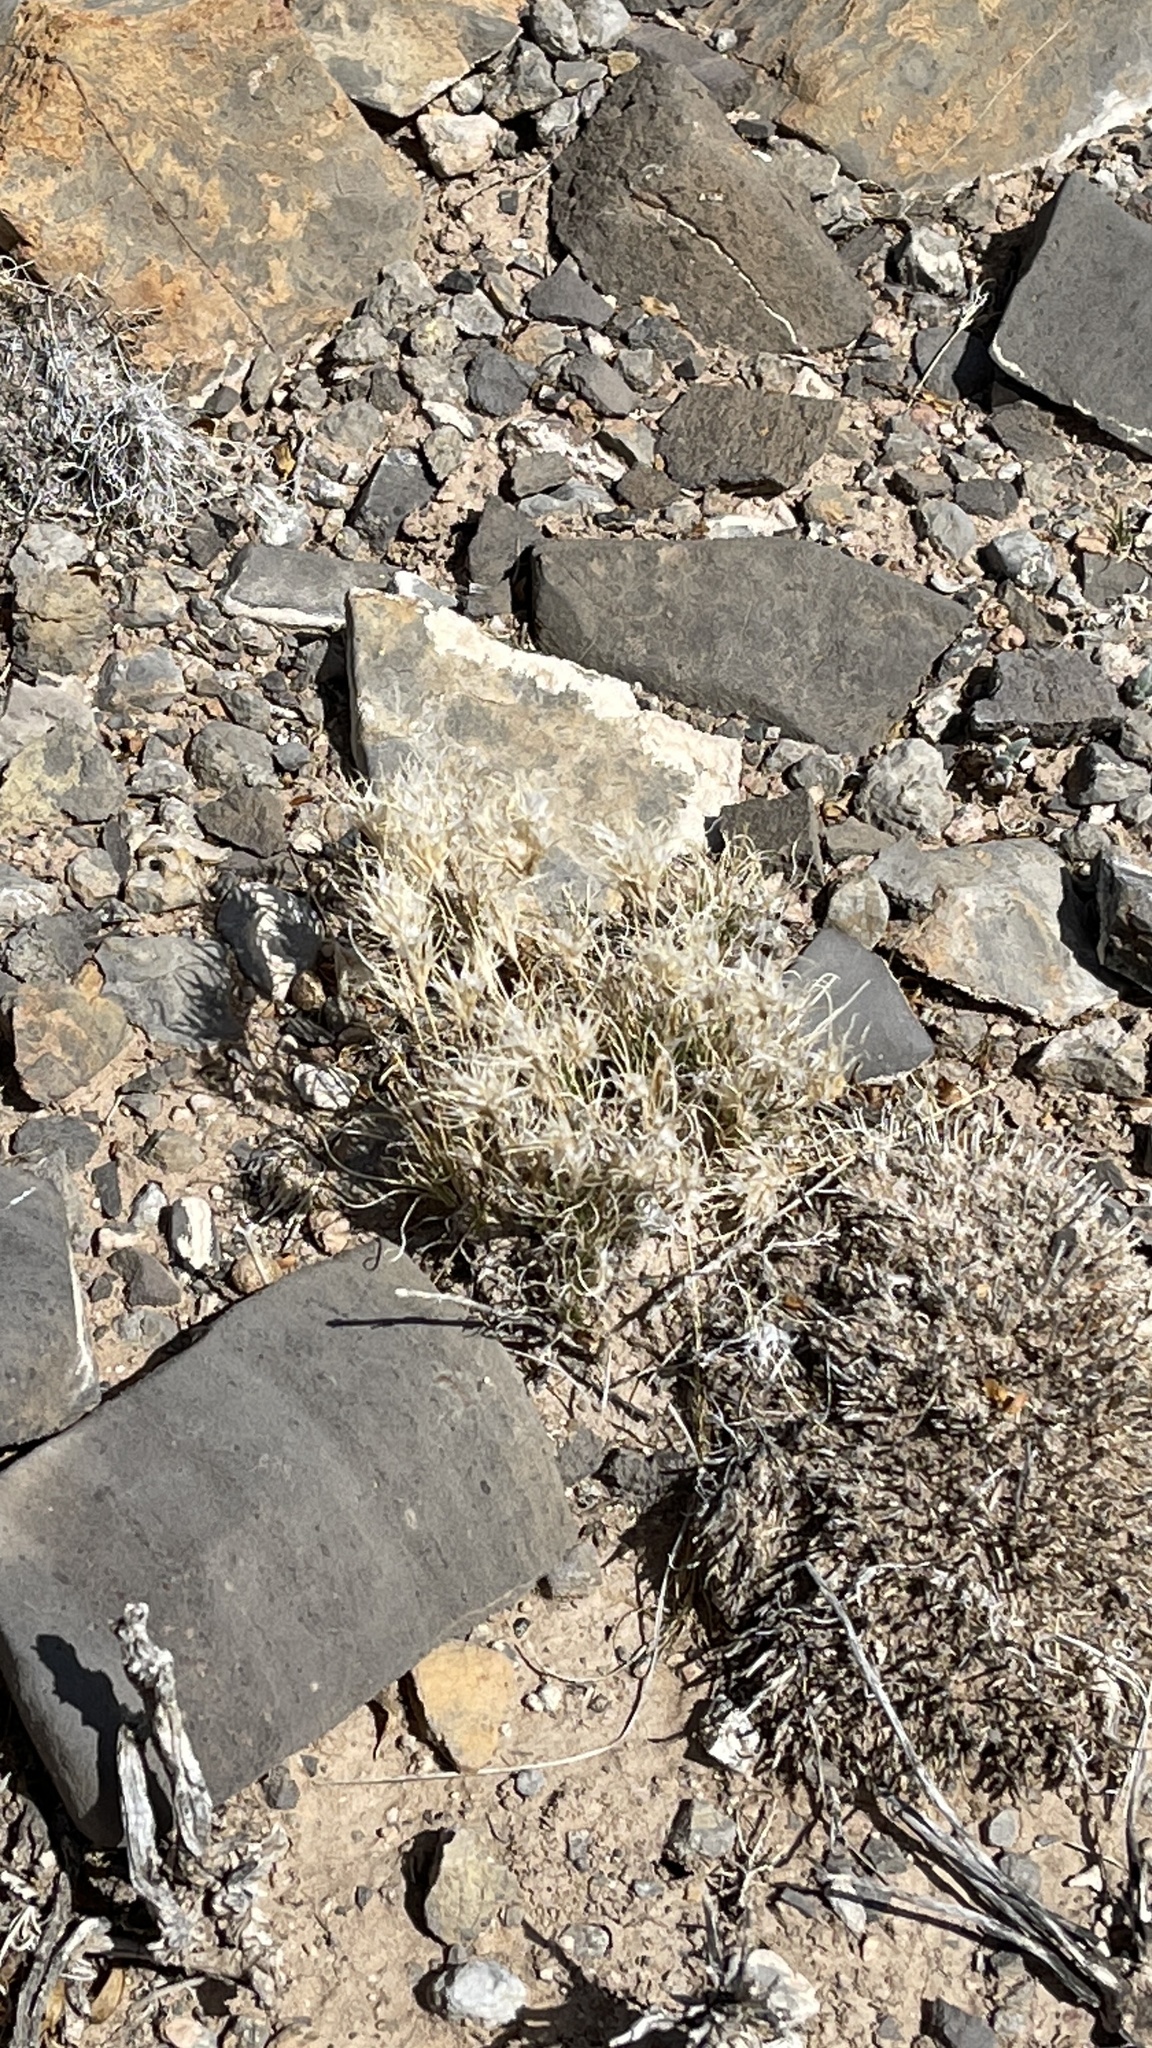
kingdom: Plantae
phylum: Tracheophyta
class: Liliopsida
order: Poales
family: Poaceae
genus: Dasyochloa
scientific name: Dasyochloa pulchella
